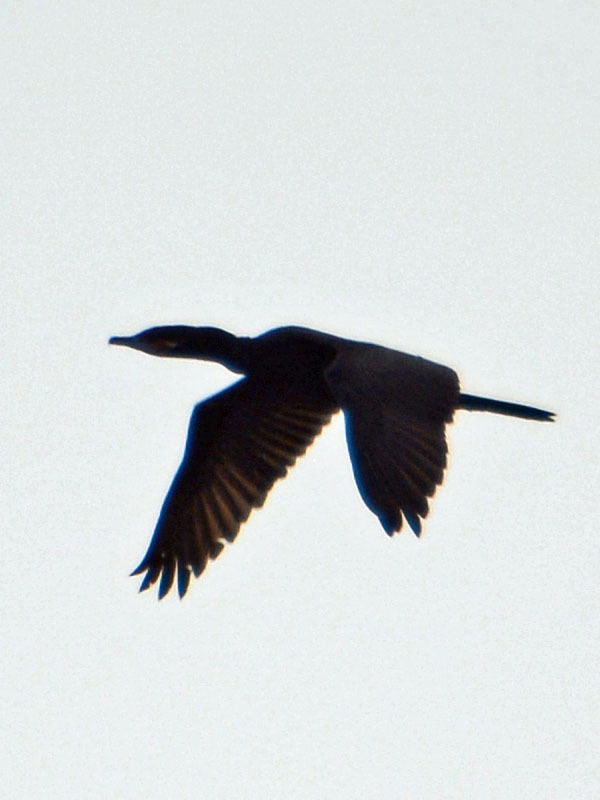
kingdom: Animalia
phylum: Chordata
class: Aves
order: Suliformes
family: Phalacrocoracidae
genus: Phalacrocorax
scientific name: Phalacrocorax brasilianus
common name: Neotropic cormorant
